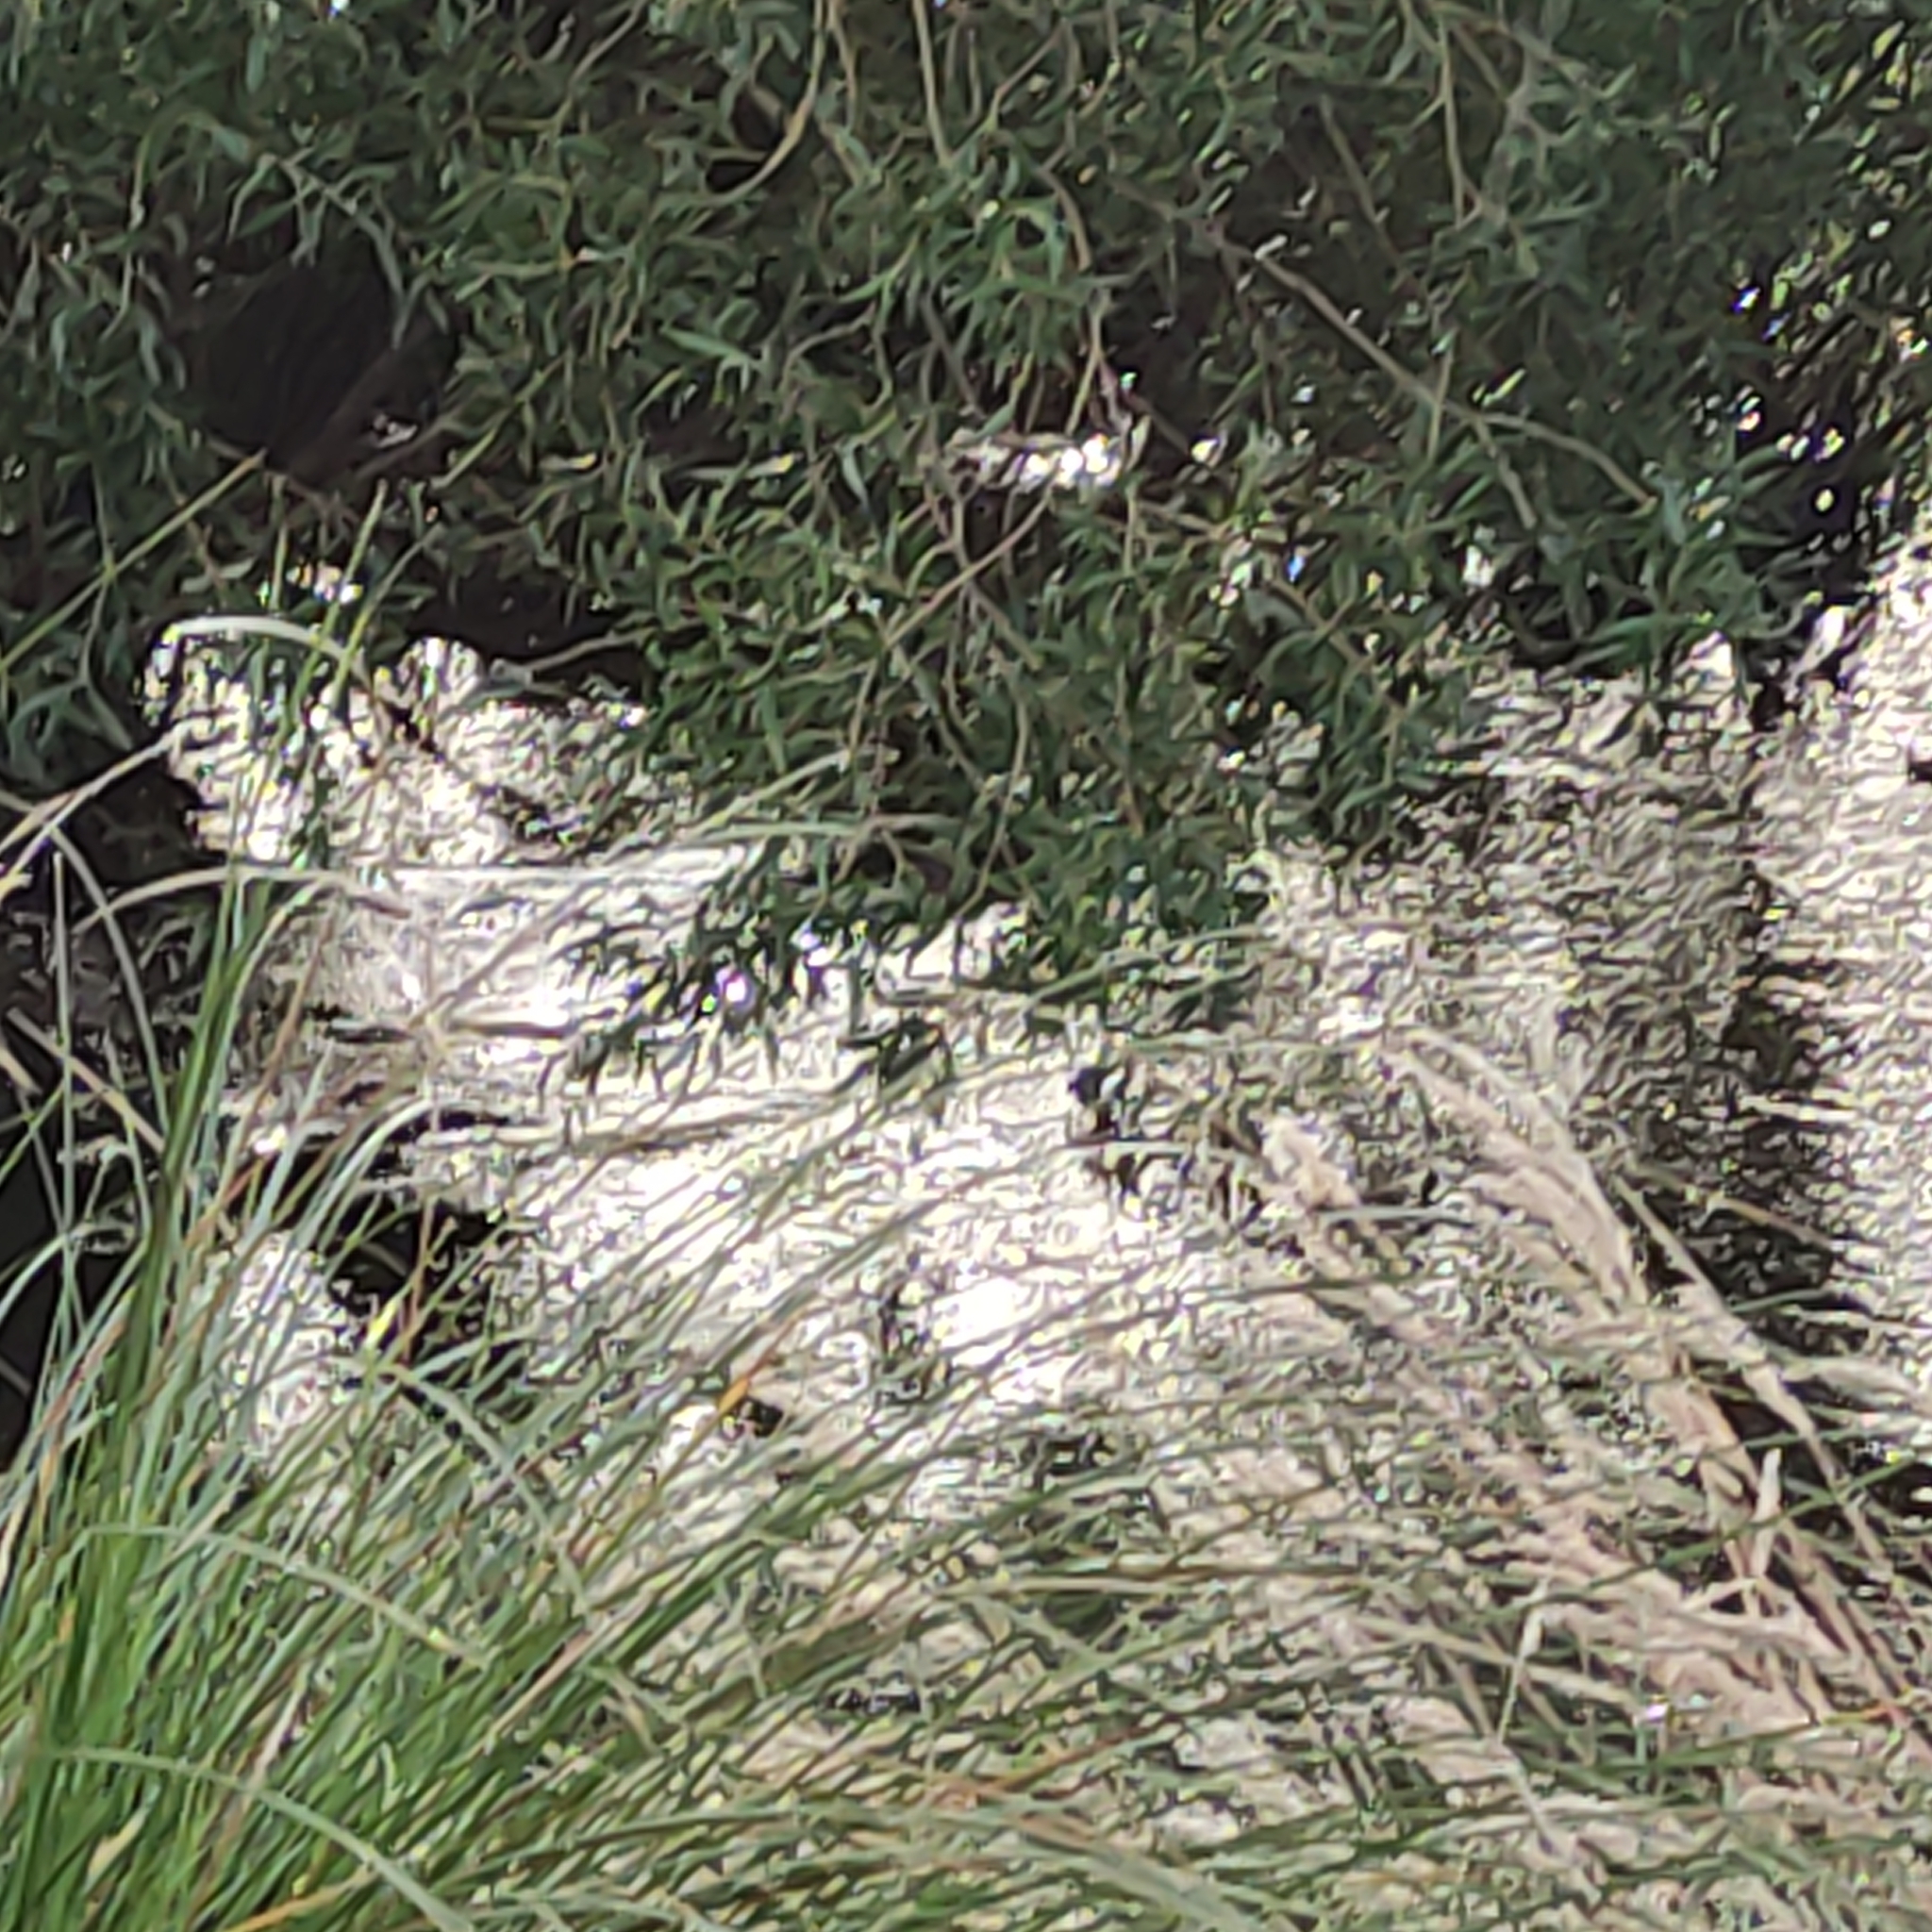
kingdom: Animalia
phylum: Chordata
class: Aves
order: Anseriformes
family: Anatidae
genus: Branta
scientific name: Branta canadensis
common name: Canada goose
